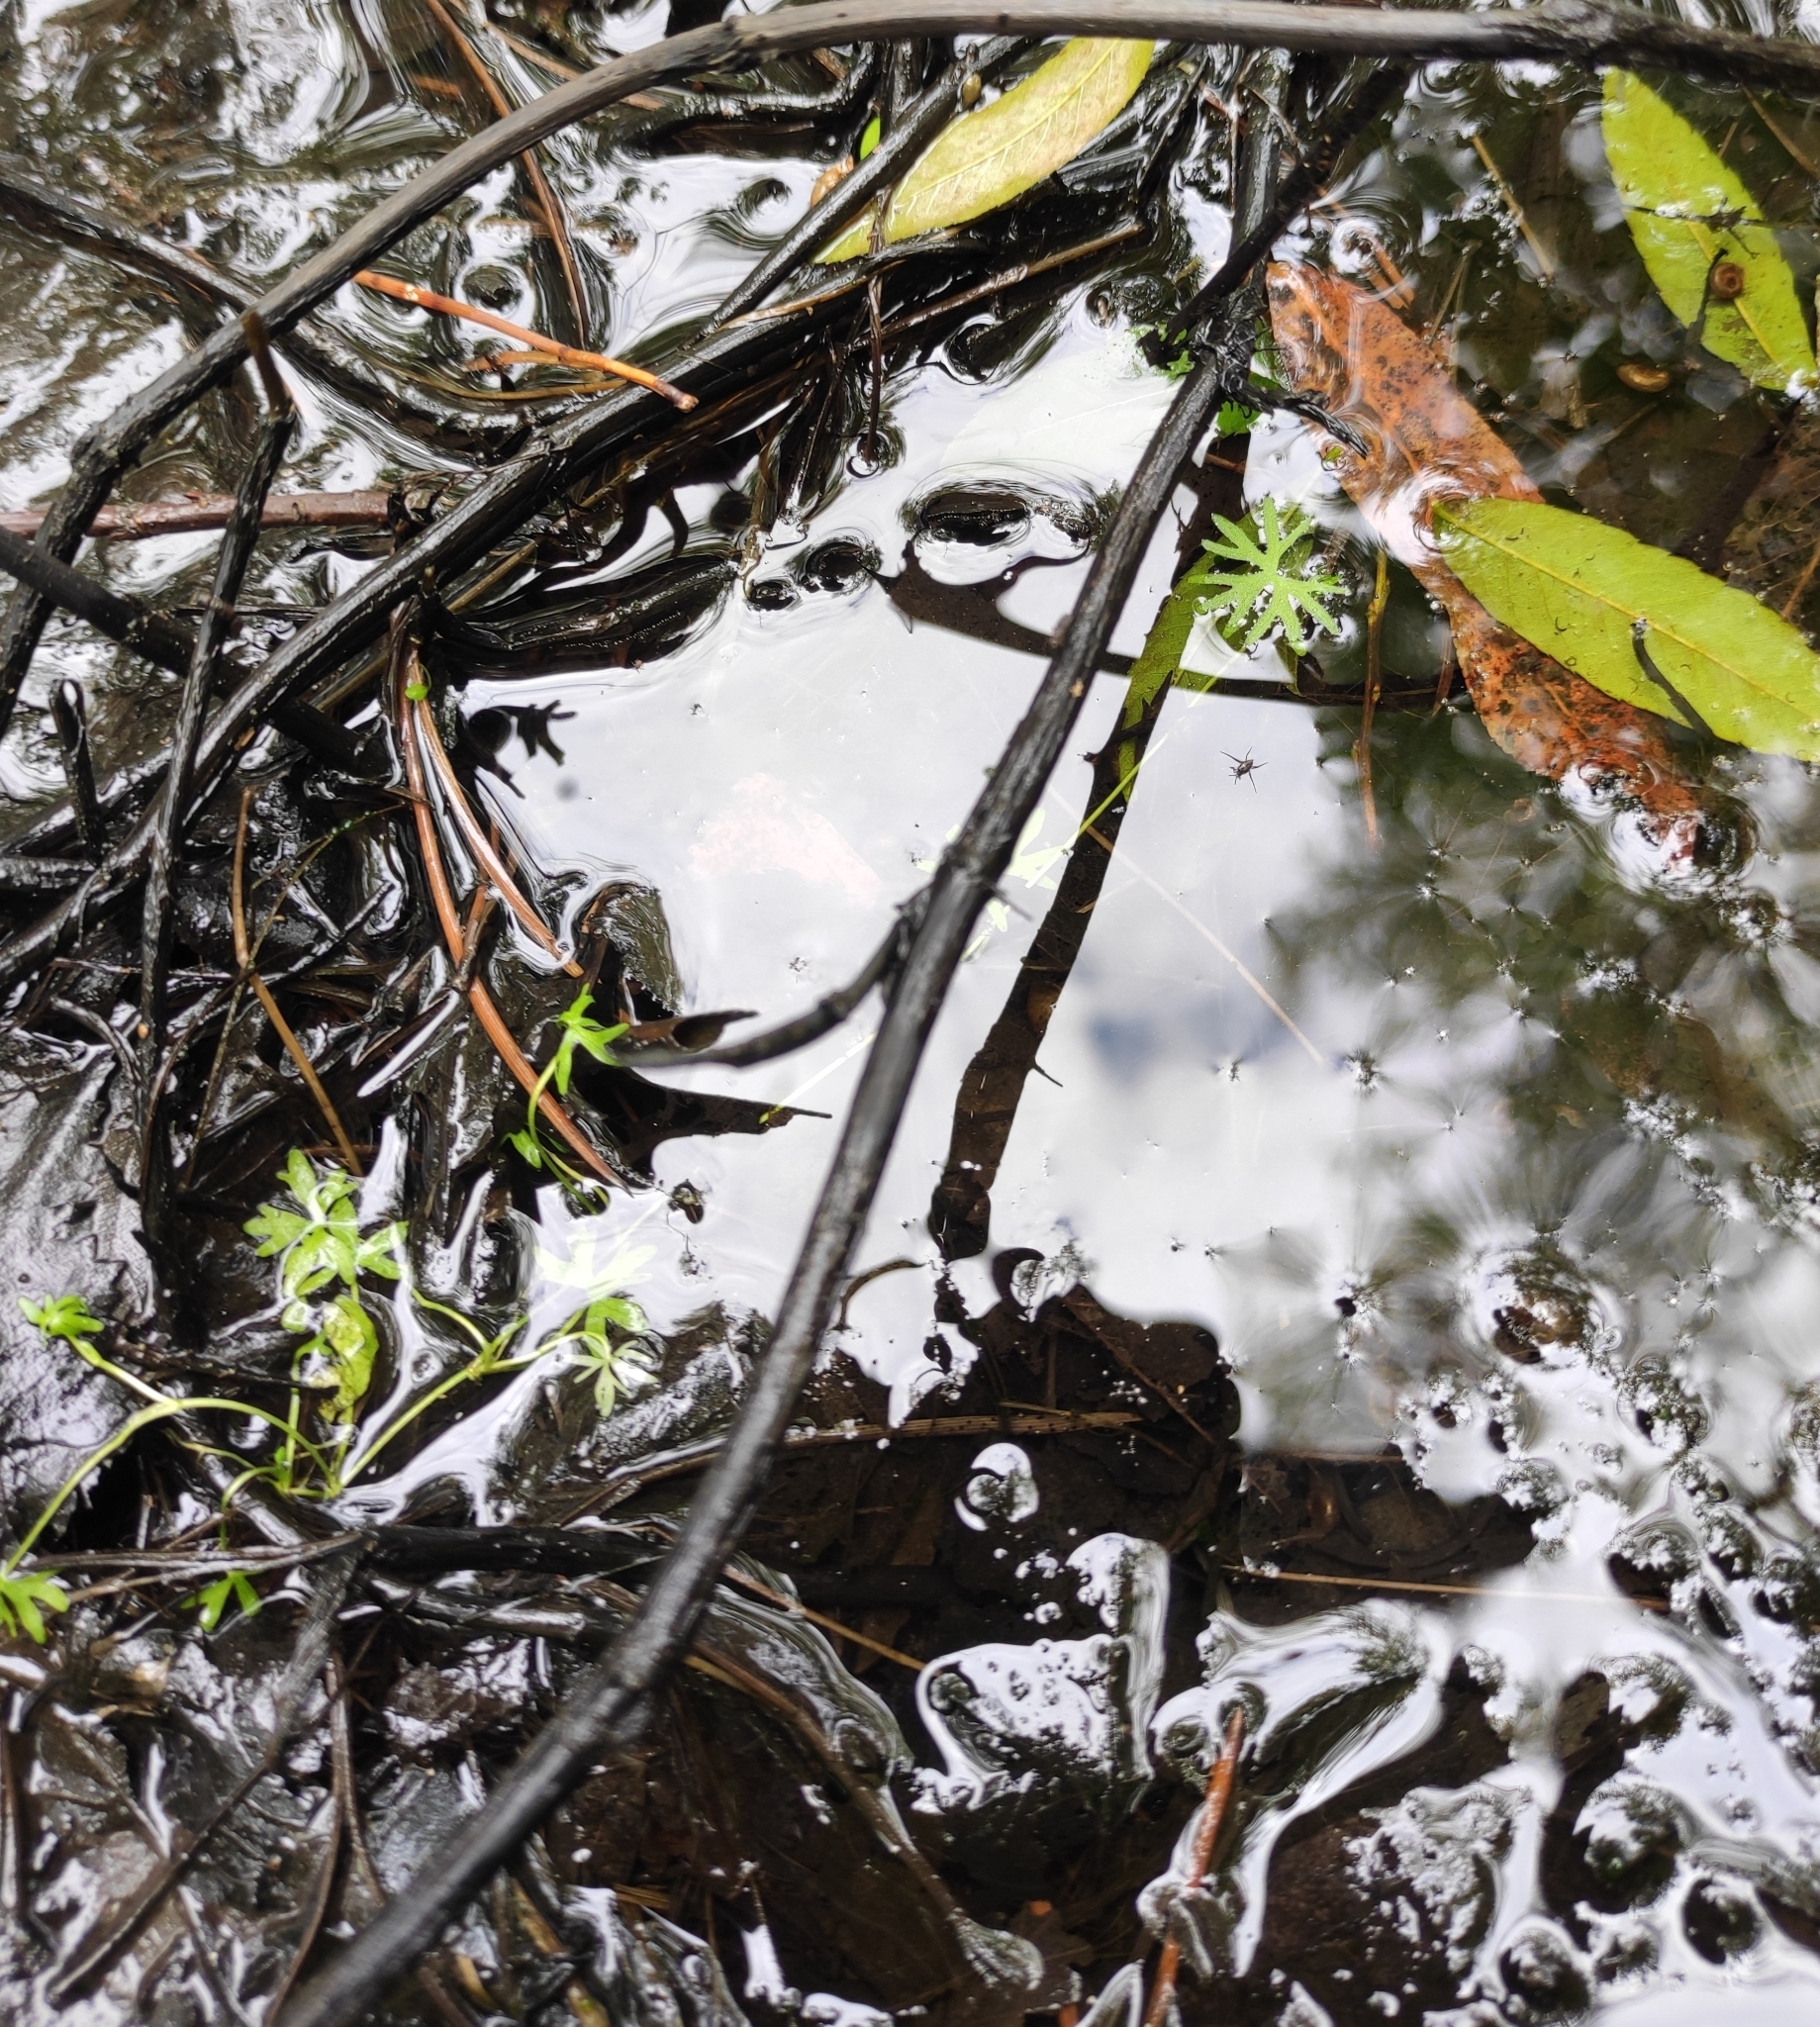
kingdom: Plantae
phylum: Tracheophyta
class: Magnoliopsida
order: Ranunculales
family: Ranunculaceae
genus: Ranunculus
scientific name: Ranunculus gmelinii
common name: Gmelin's buttercup
